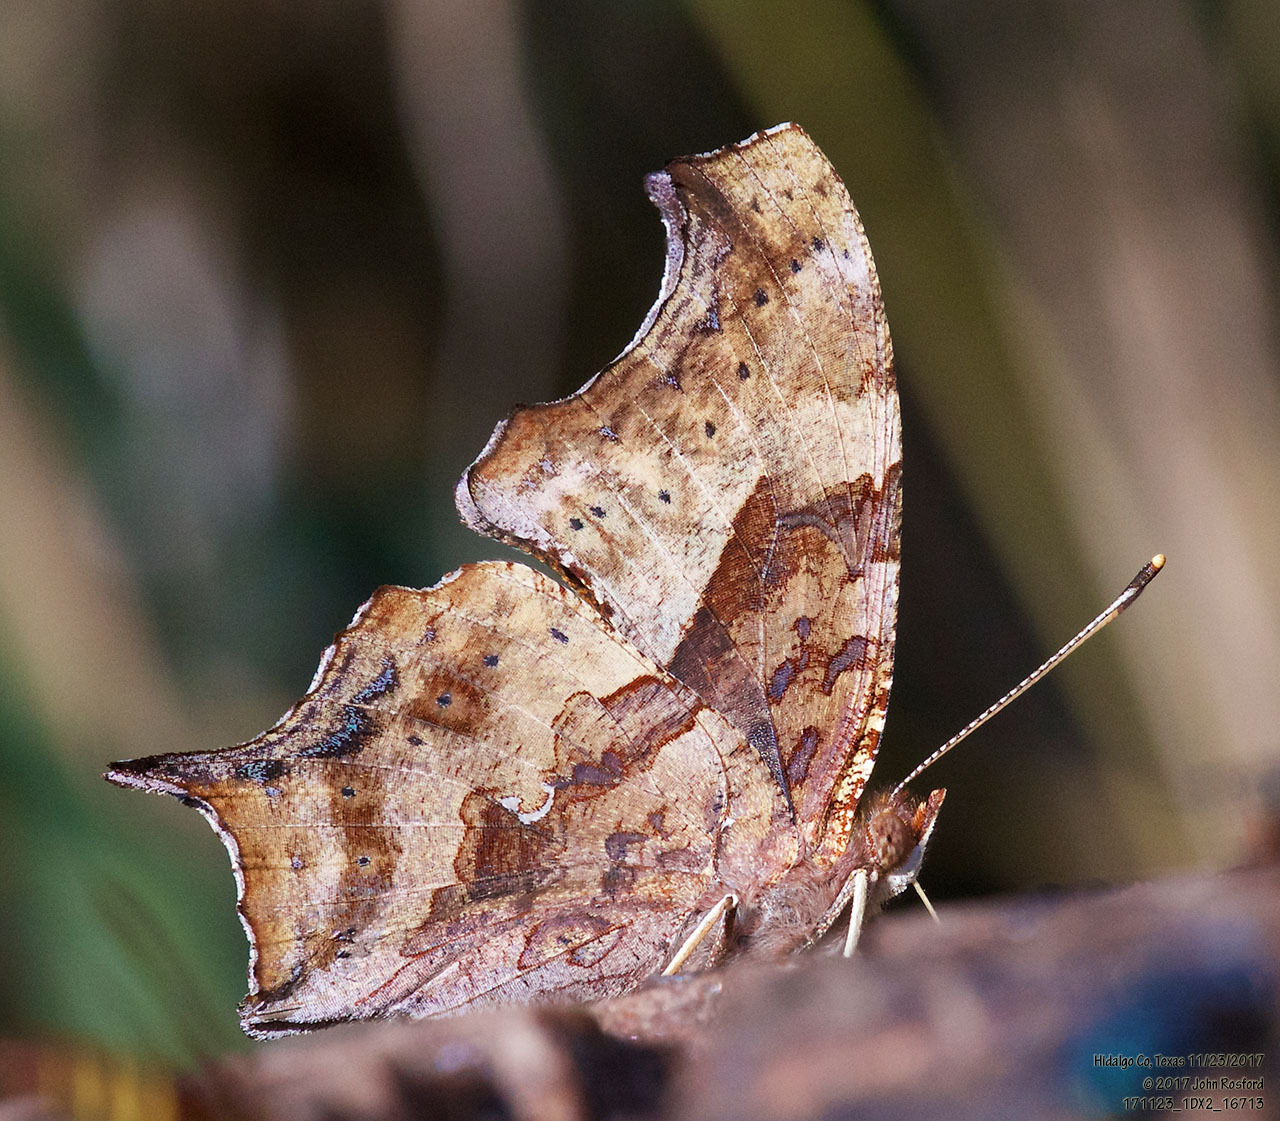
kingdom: Animalia
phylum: Arthropoda
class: Insecta
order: Lepidoptera
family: Nymphalidae
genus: Polygonia
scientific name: Polygonia interrogationis
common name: Question mark
